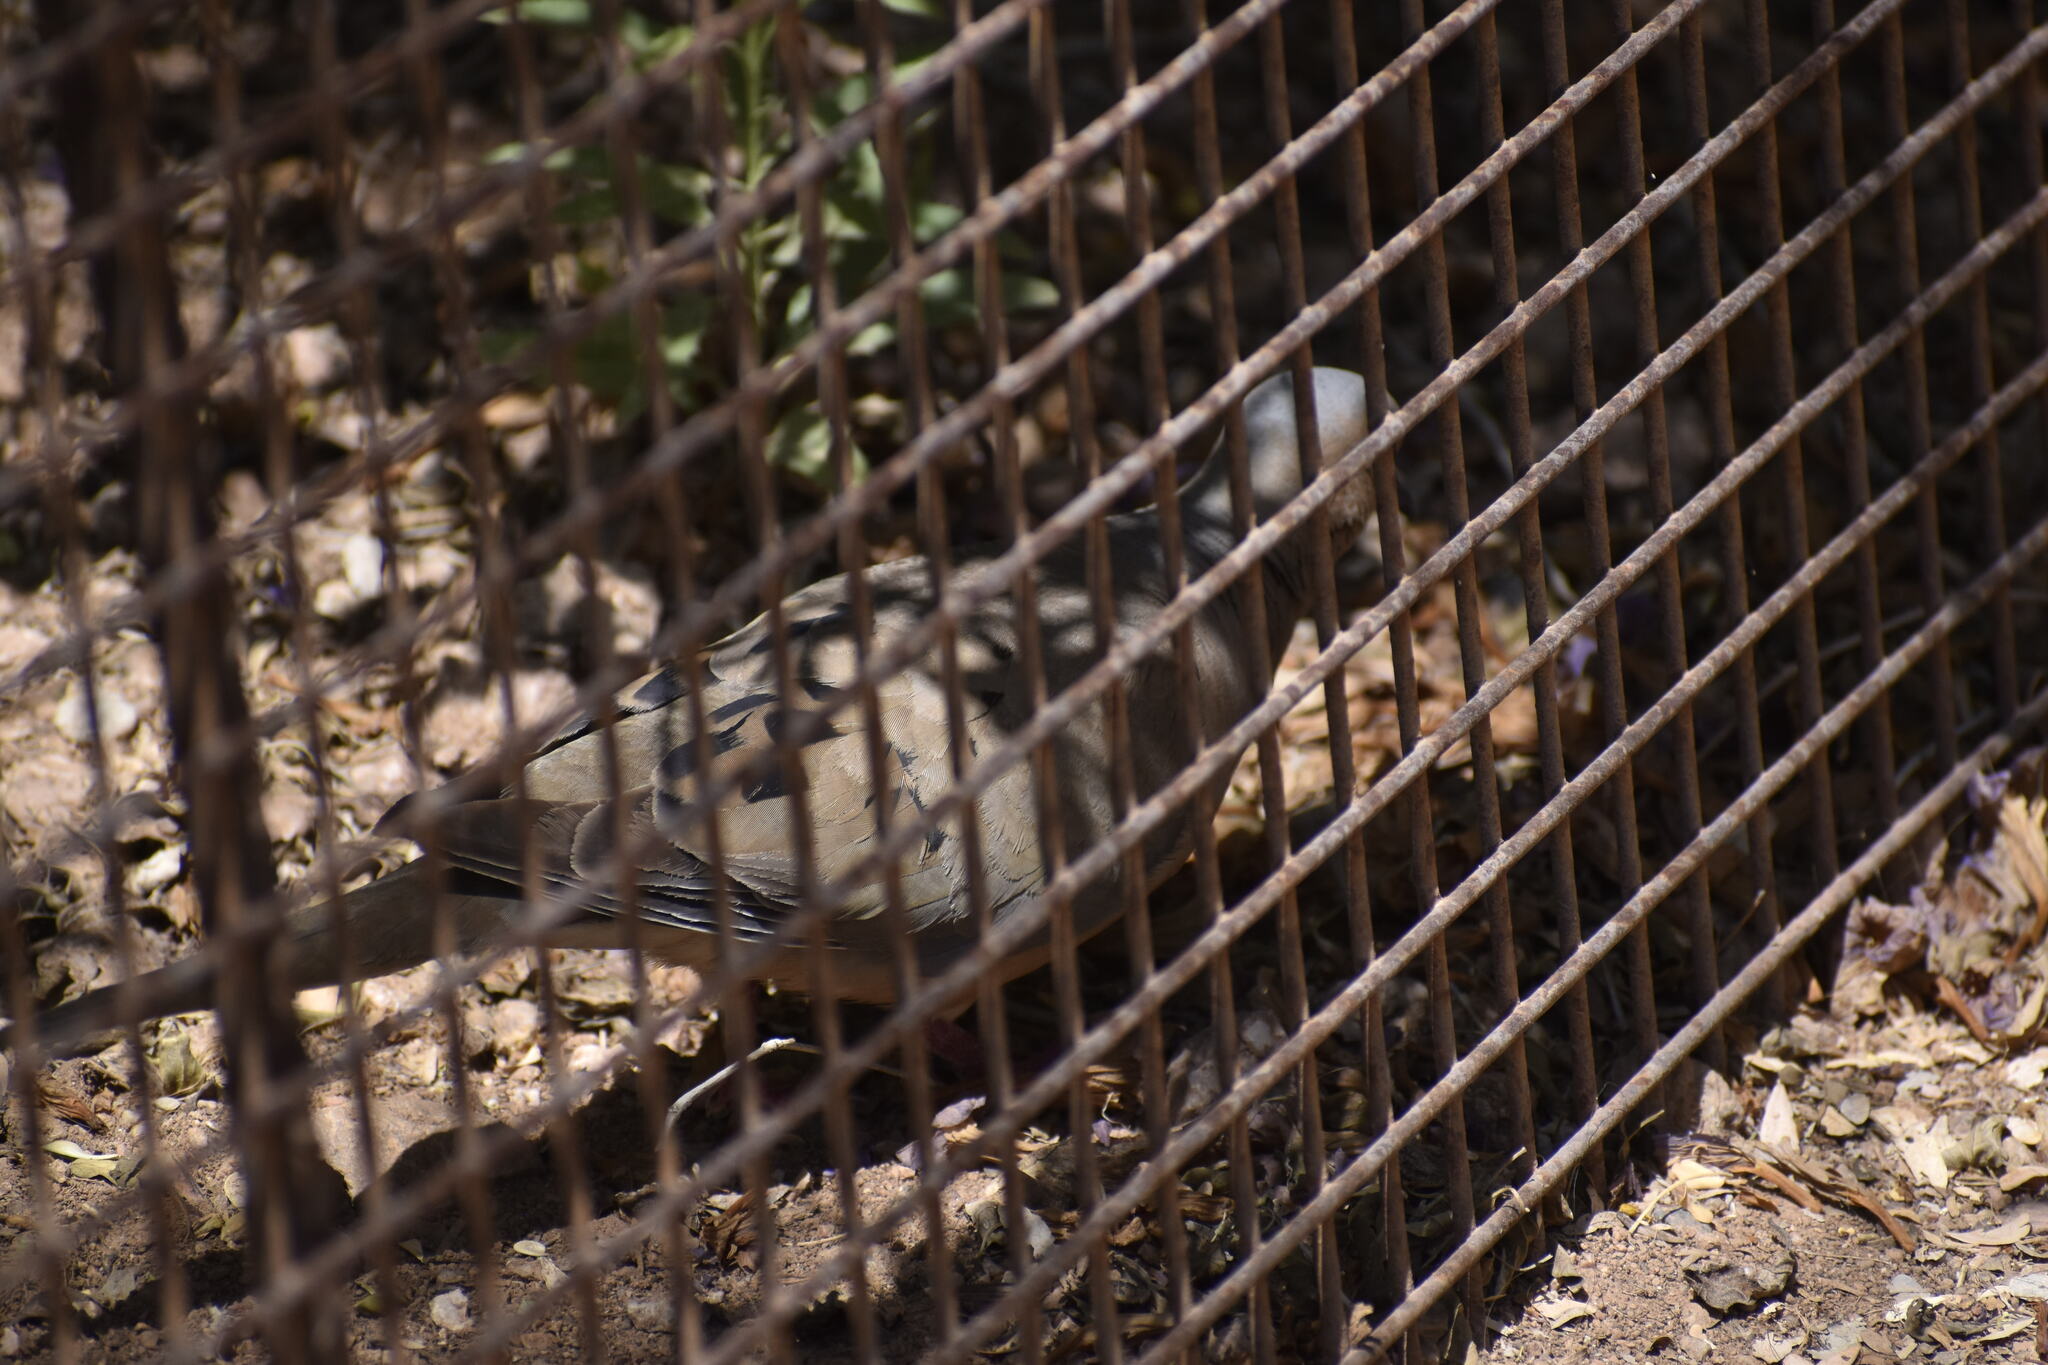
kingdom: Animalia
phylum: Chordata
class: Aves
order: Columbiformes
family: Columbidae
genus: Zenaida
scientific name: Zenaida macroura
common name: Mourning dove
